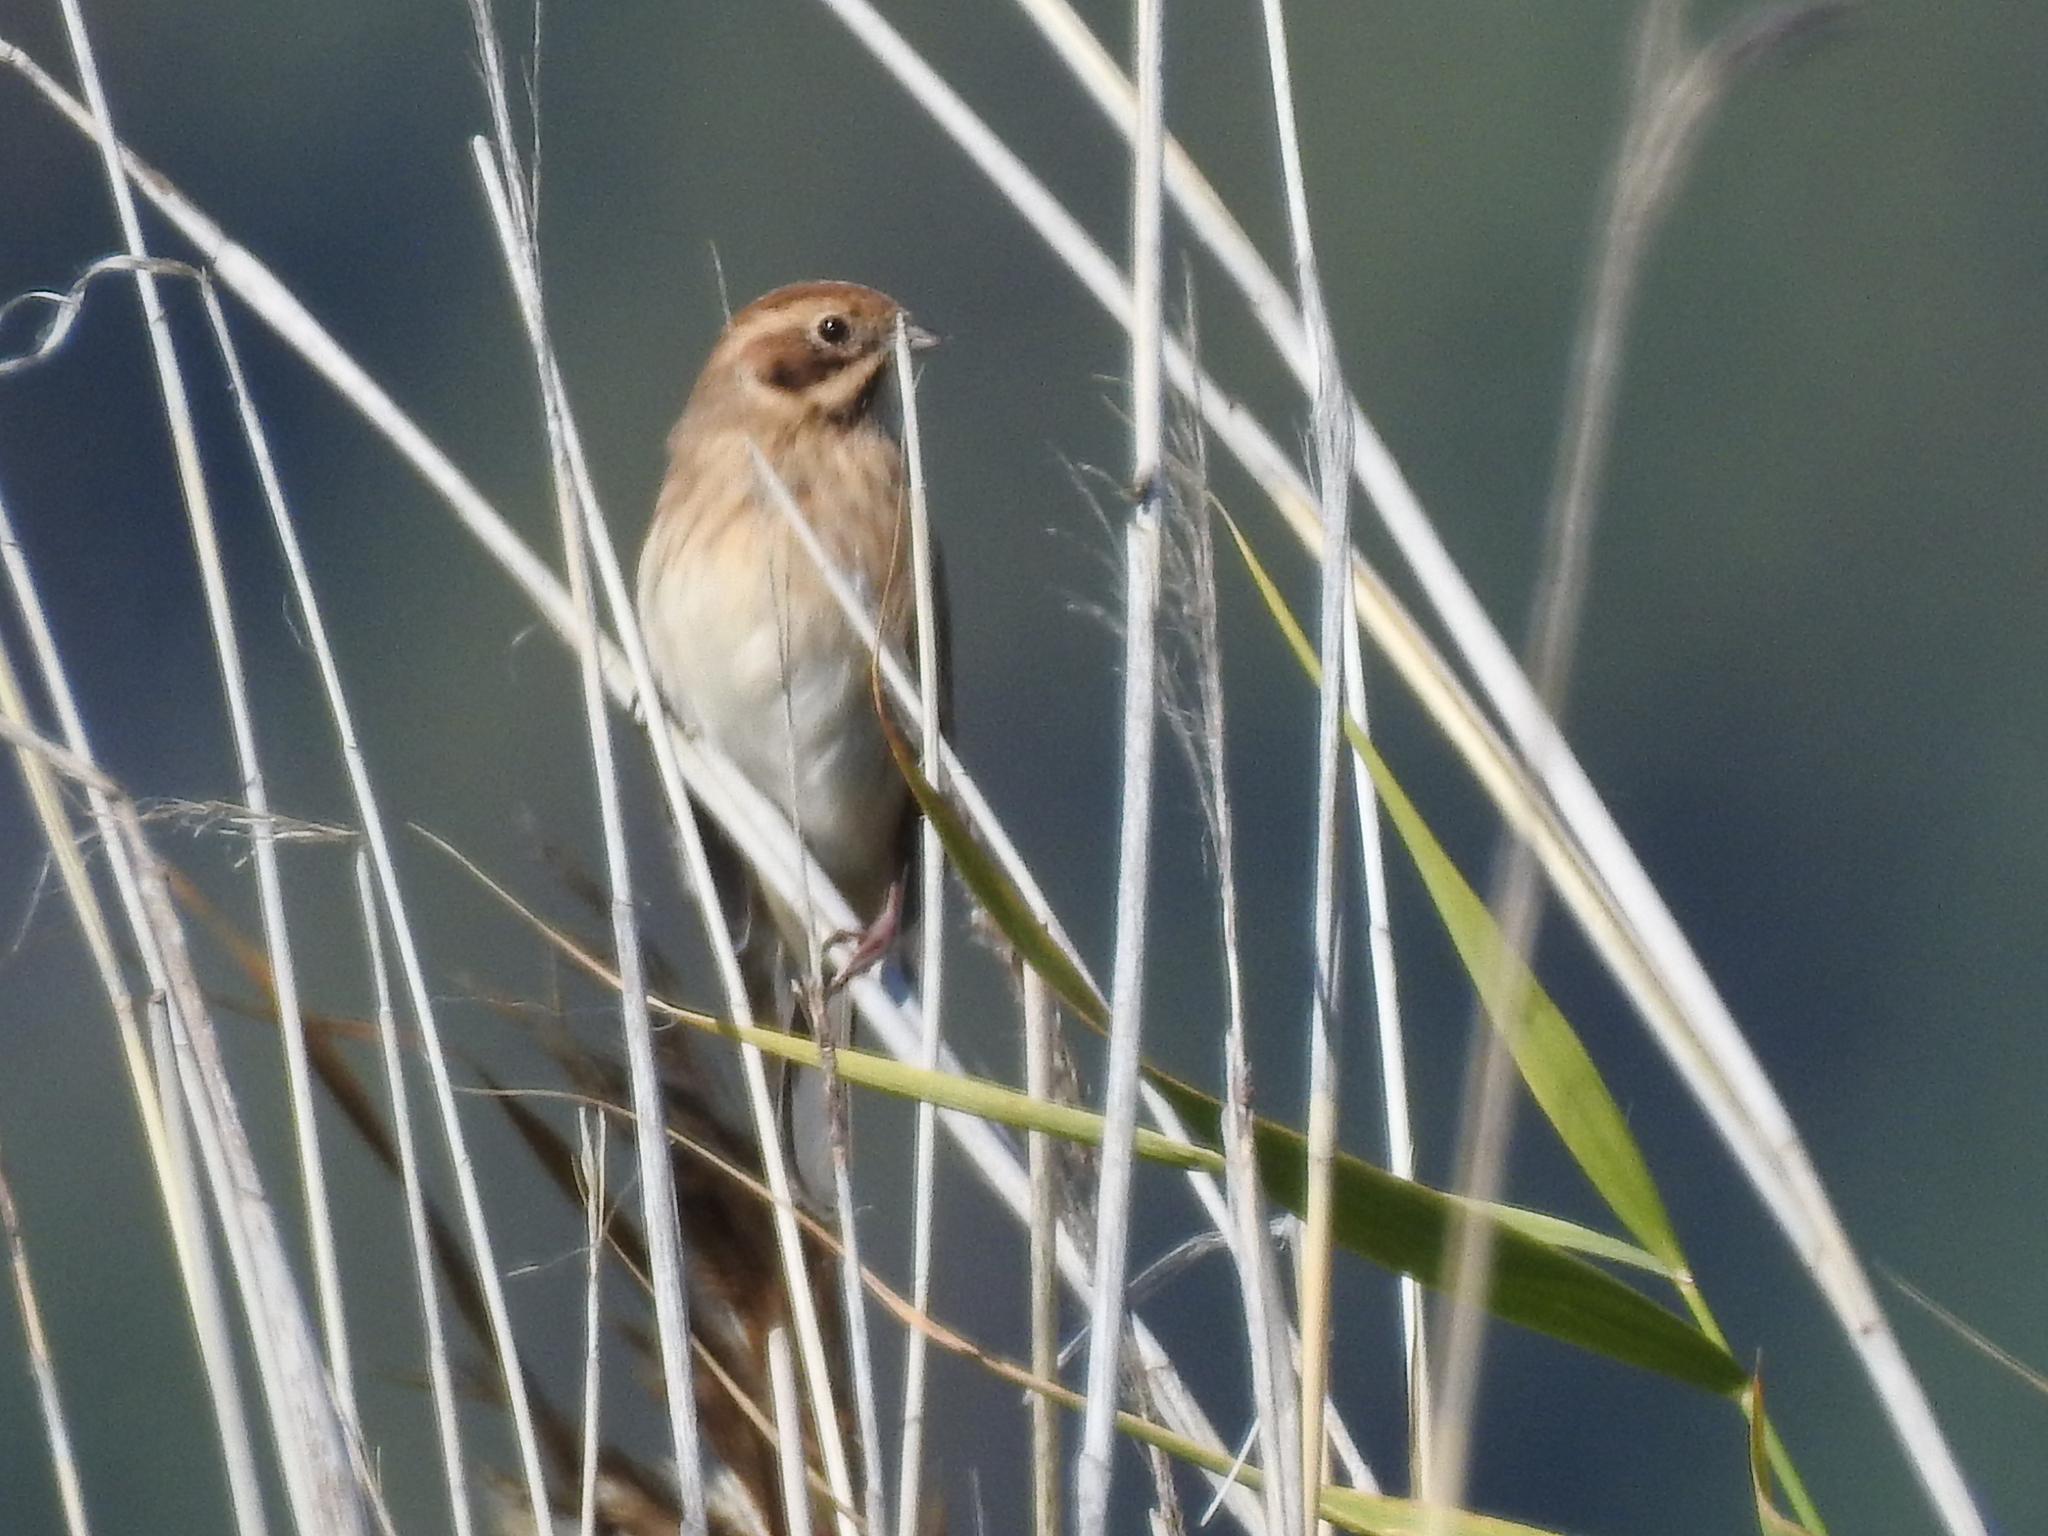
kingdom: Animalia
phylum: Chordata
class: Aves
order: Passeriformes
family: Emberizidae
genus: Emberiza
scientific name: Emberiza schoeniclus
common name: Reed bunting
